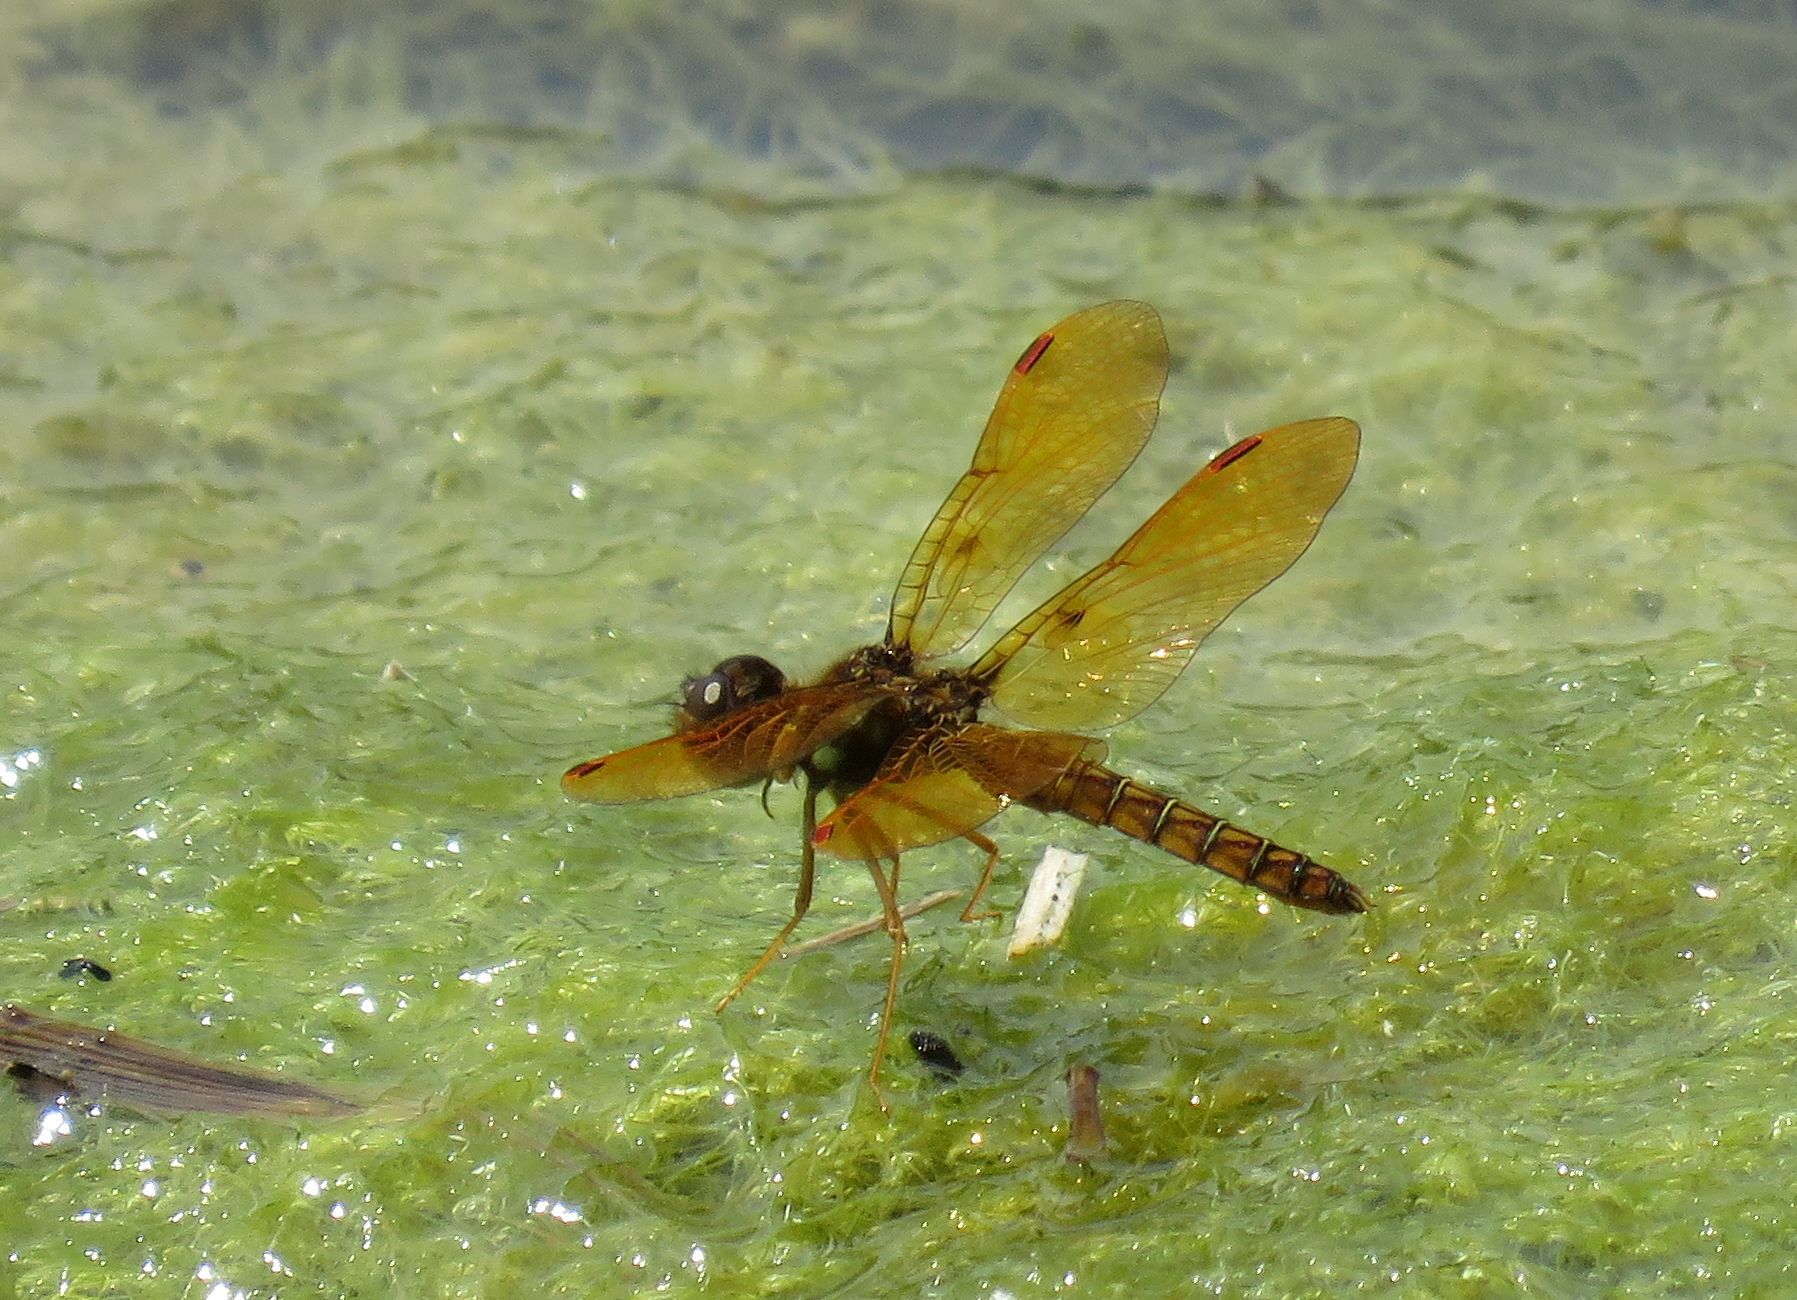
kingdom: Animalia
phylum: Arthropoda
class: Insecta
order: Odonata
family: Libellulidae
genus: Perithemis
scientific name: Perithemis tenera
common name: Eastern amberwing
